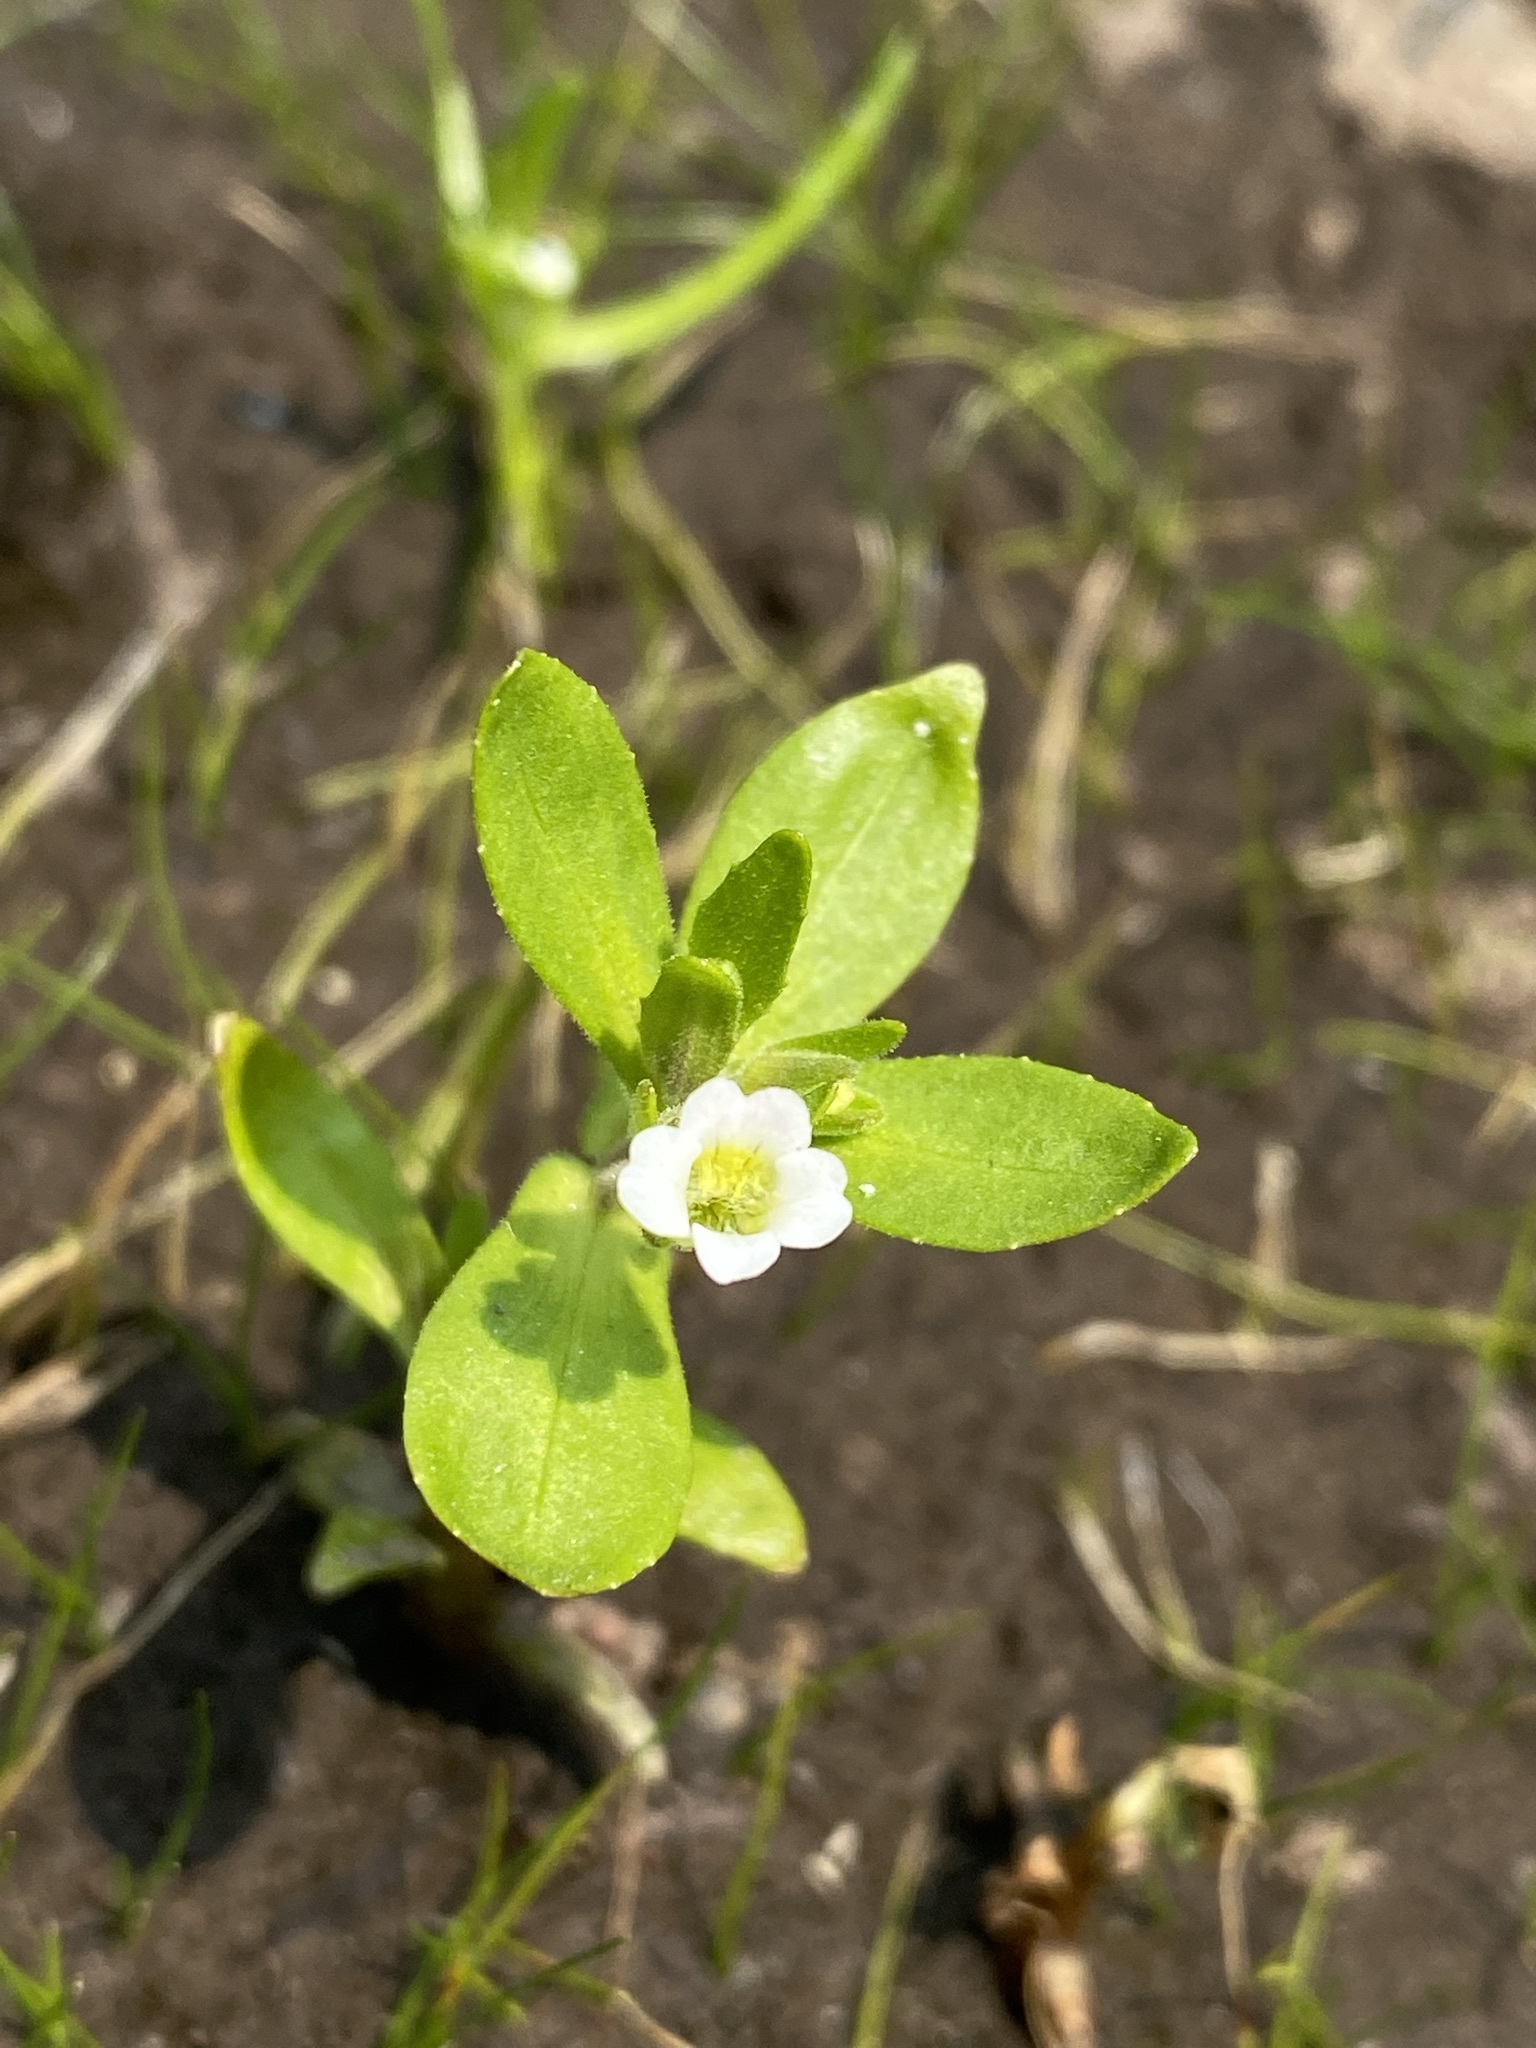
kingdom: Plantae
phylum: Tracheophyta
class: Magnoliopsida
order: Lamiales
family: Plantaginaceae
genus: Gratiola
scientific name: Gratiola neglecta
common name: American hedge-hyssop
